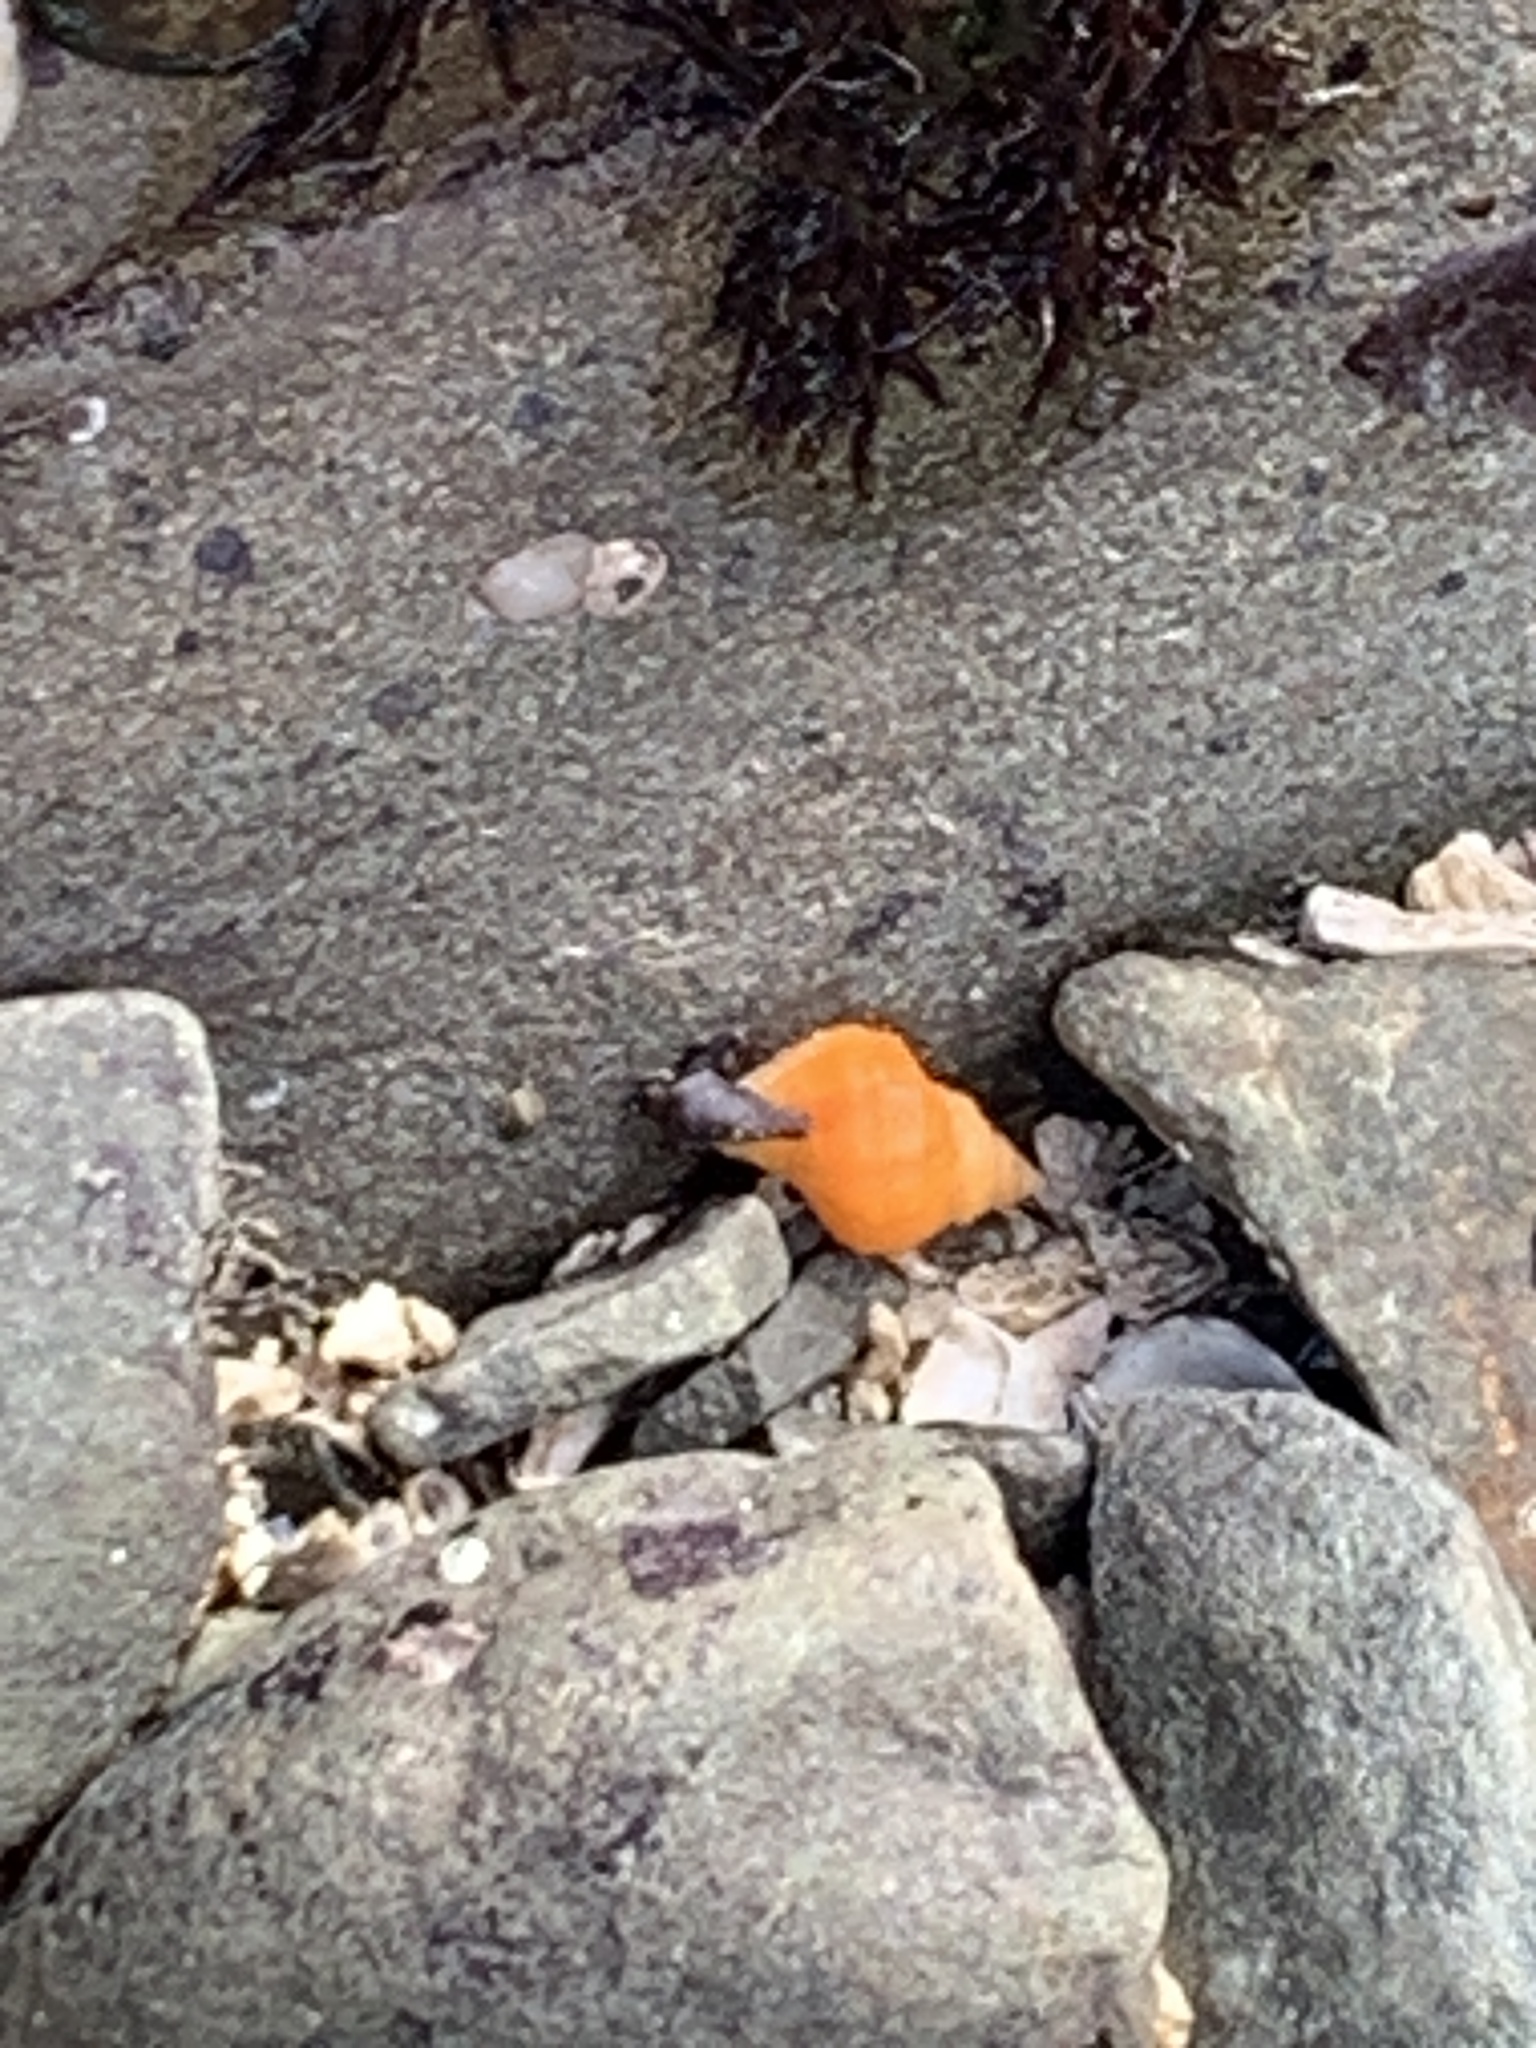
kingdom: Animalia
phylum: Mollusca
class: Gastropoda
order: Neogastropoda
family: Muricidae
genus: Nucella
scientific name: Nucella lamellosa
